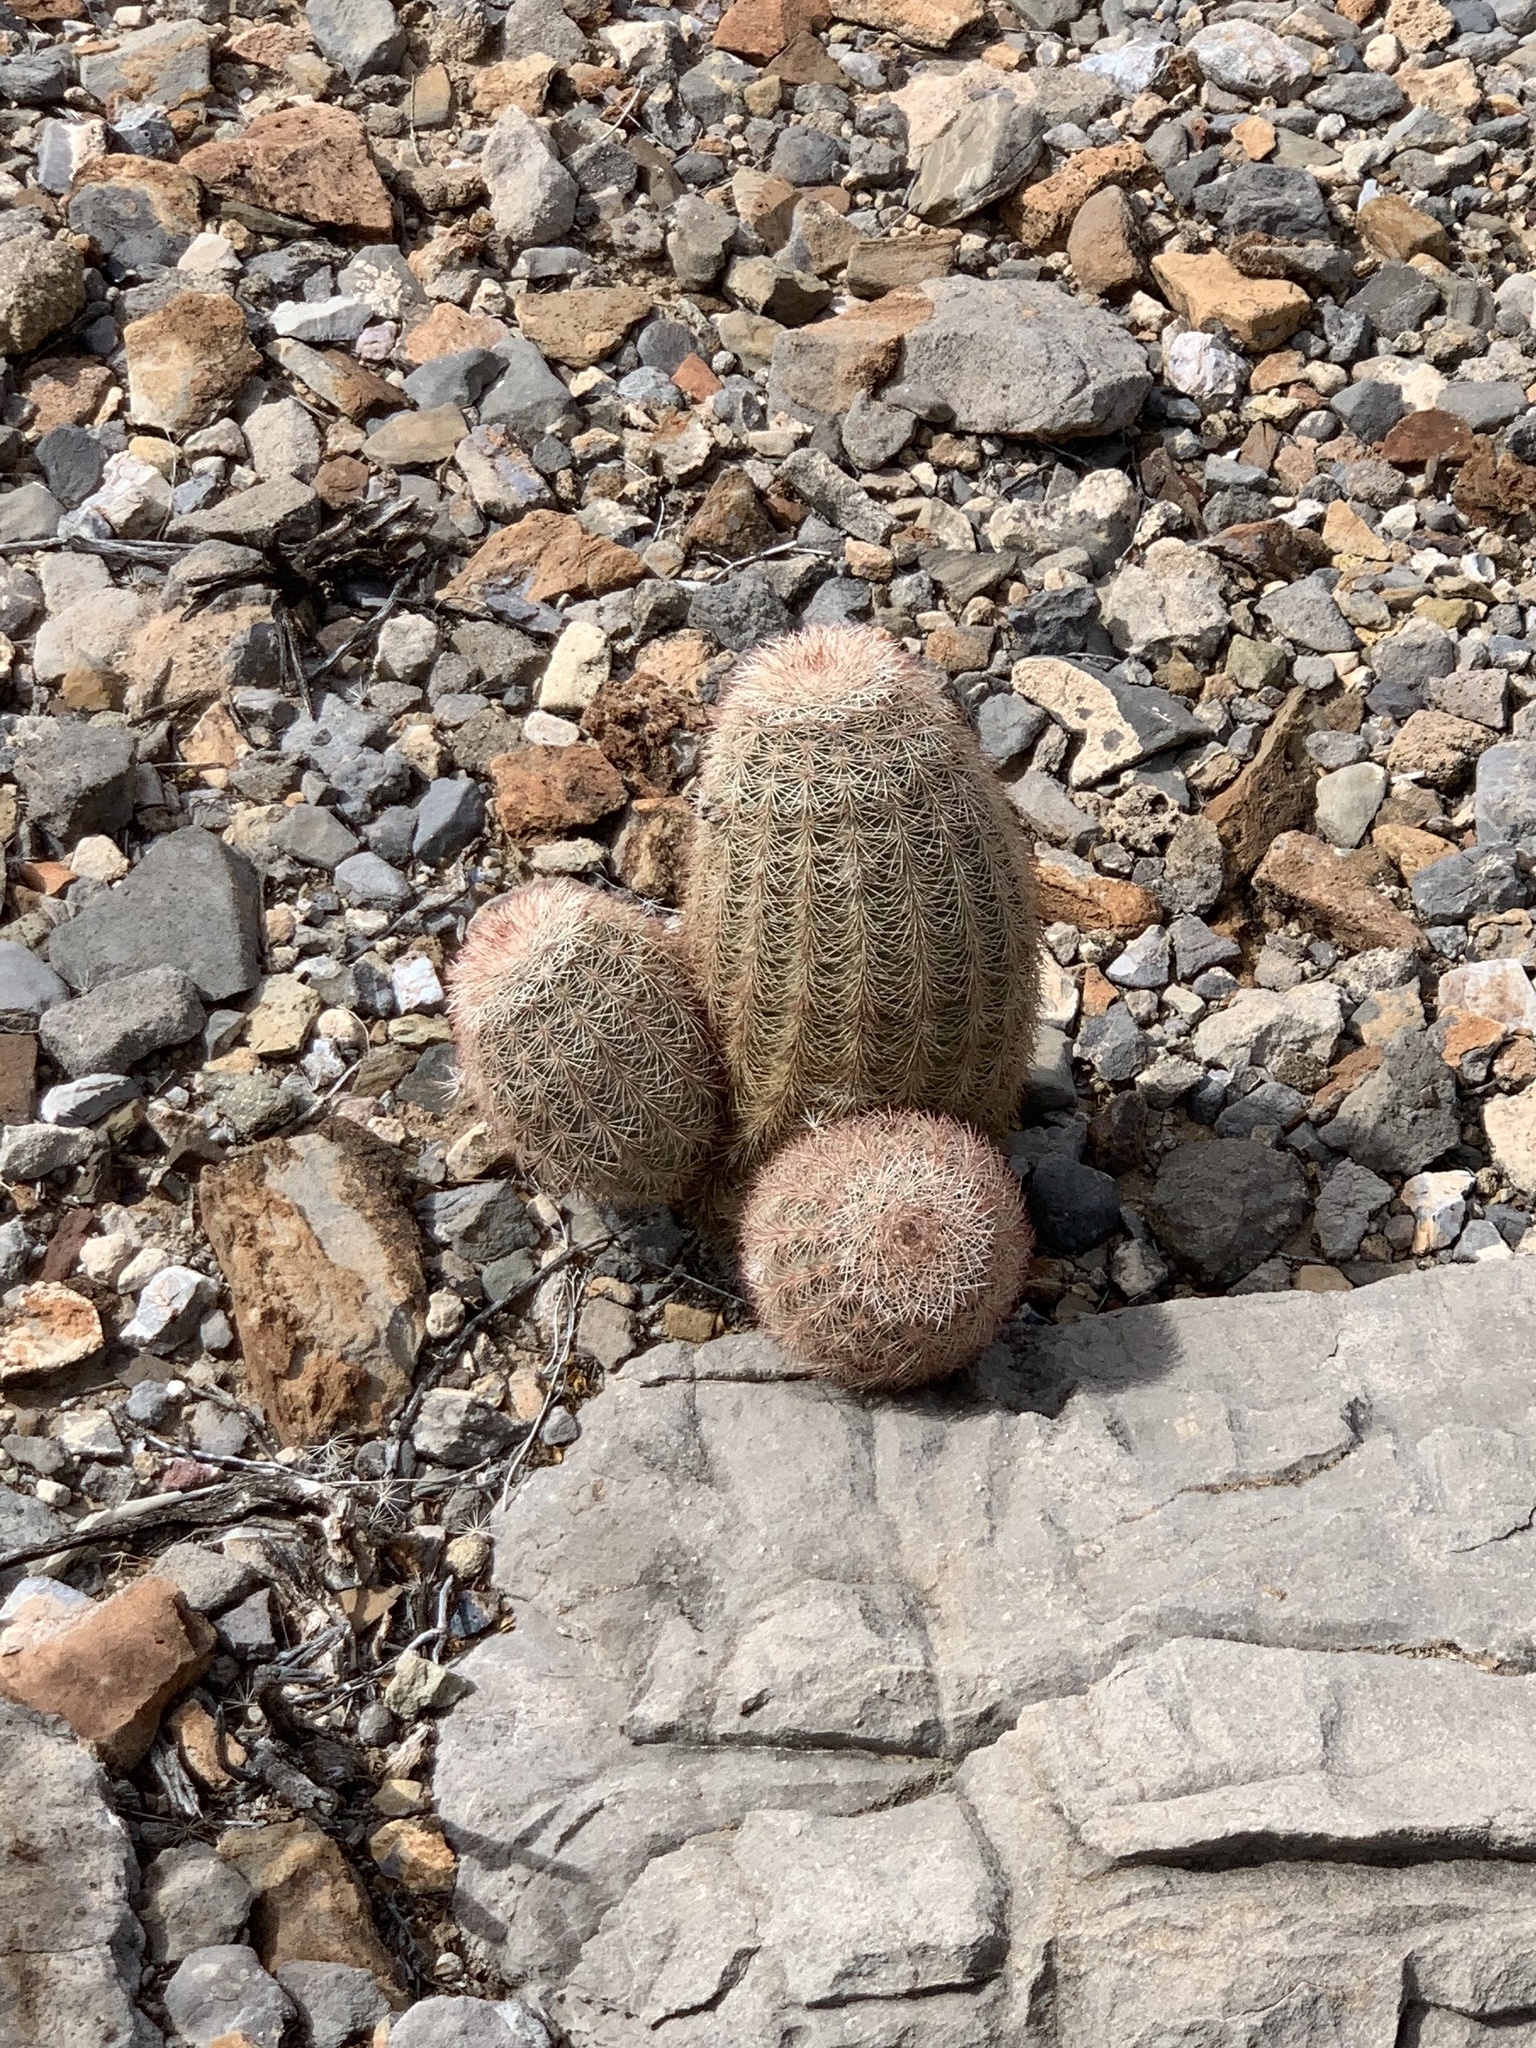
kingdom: Plantae
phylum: Tracheophyta
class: Magnoliopsida
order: Caryophyllales
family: Cactaceae
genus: Echinocereus
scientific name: Echinocereus dasyacanthus
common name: Spiny hedgehog cactus
